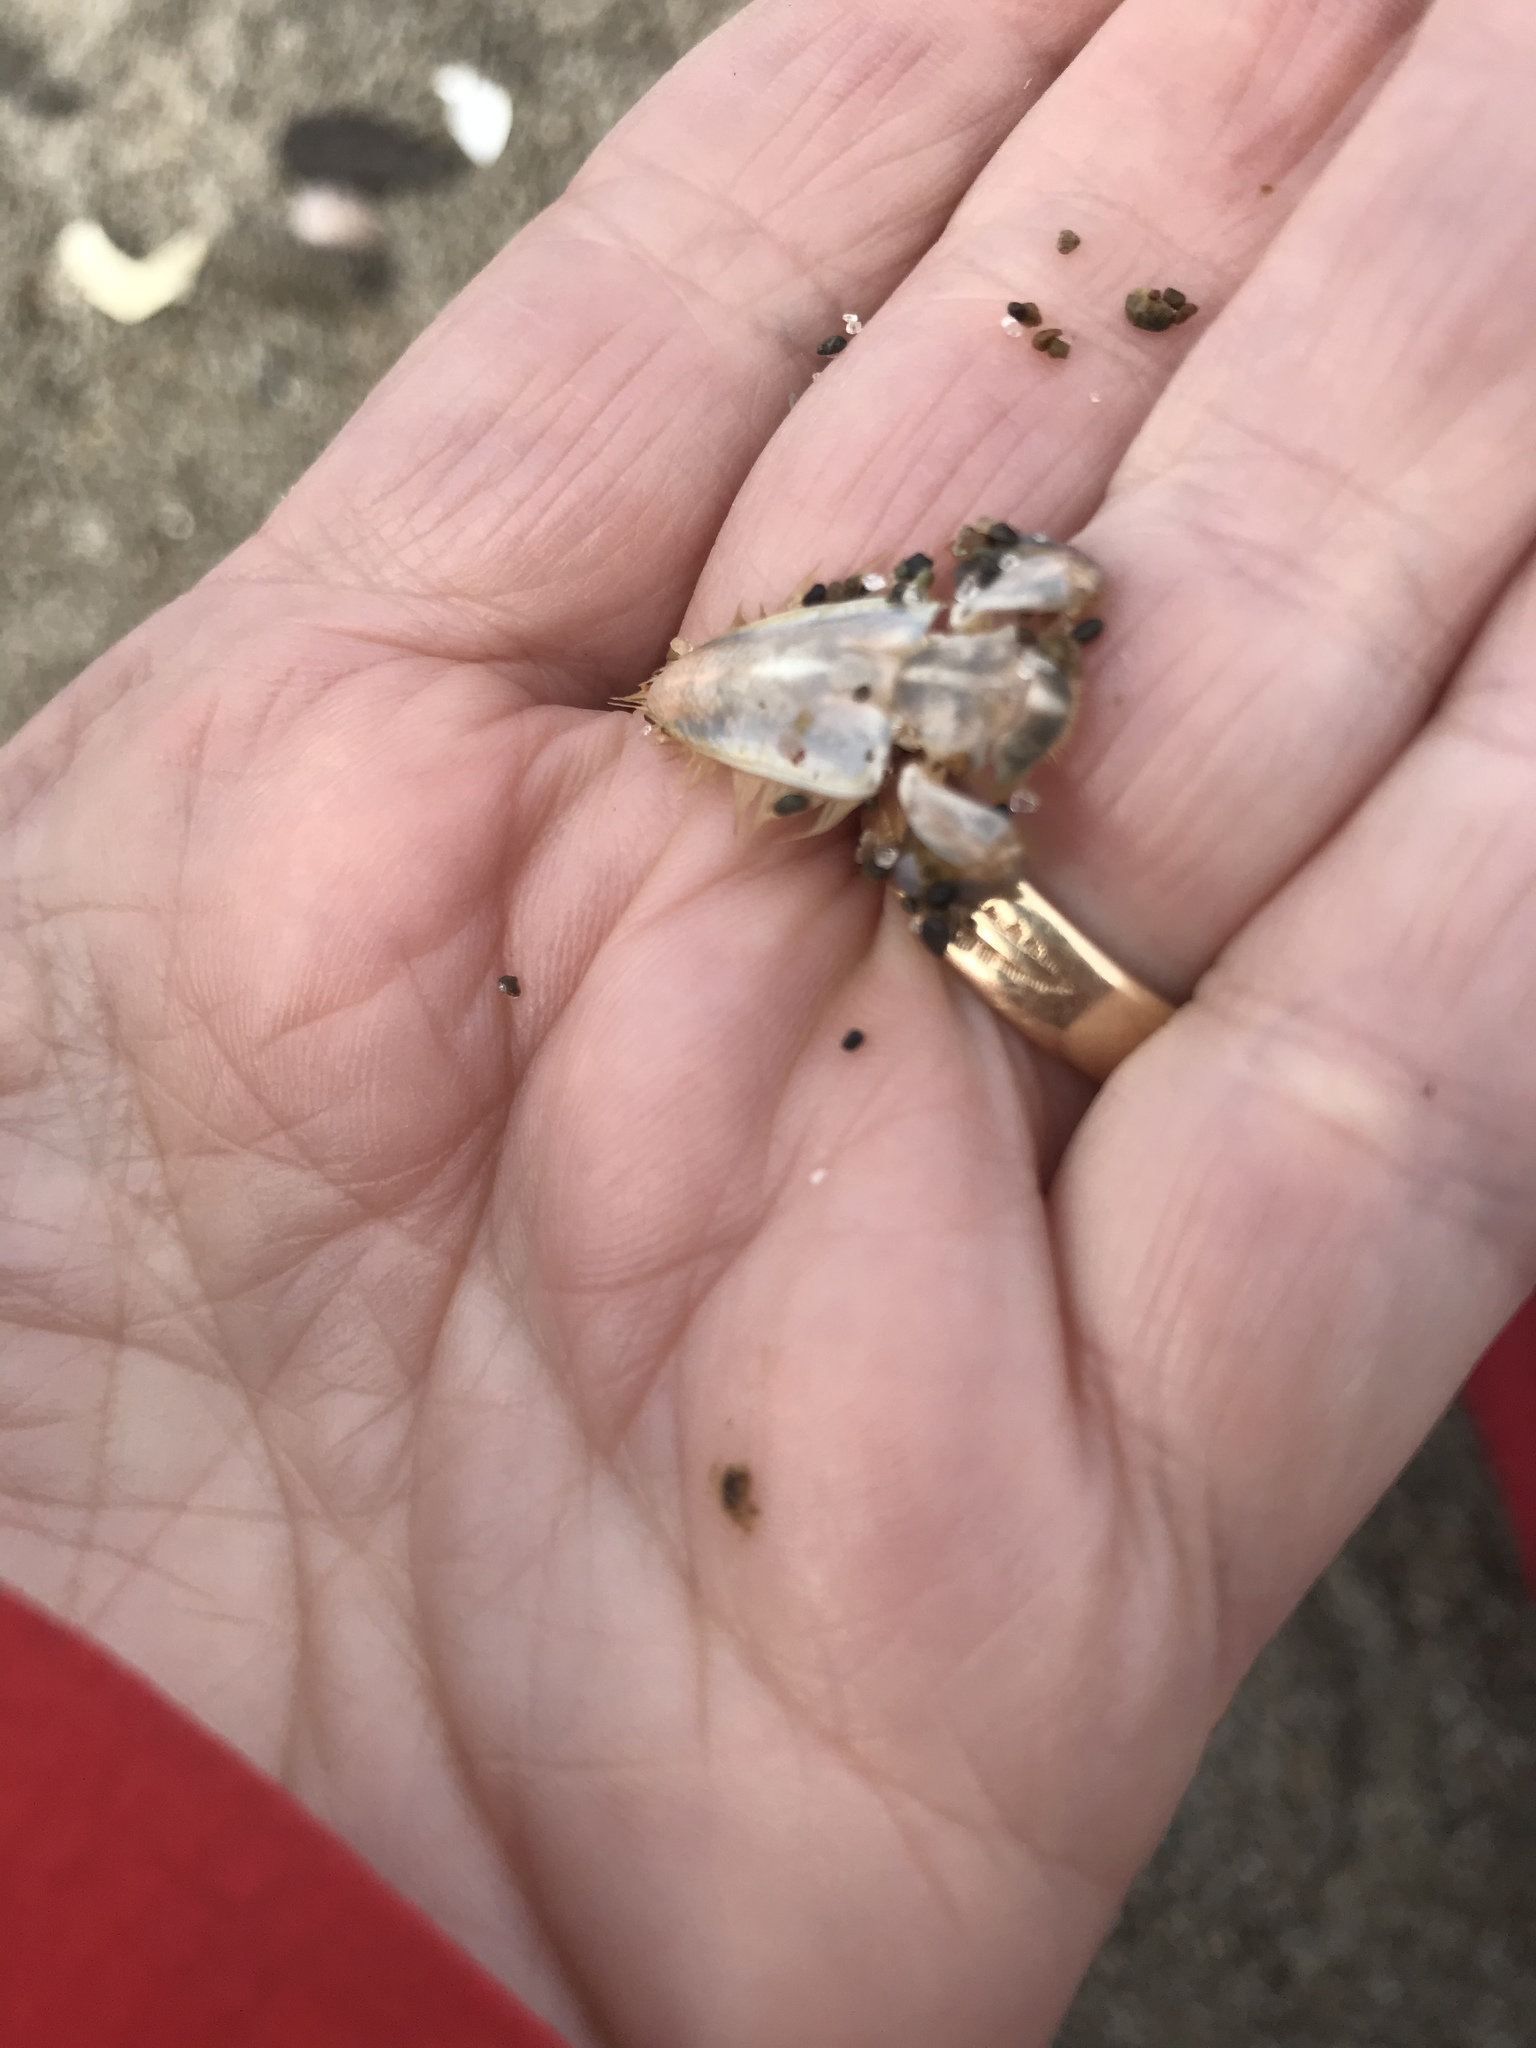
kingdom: Animalia
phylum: Arthropoda
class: Malacostraca
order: Decapoda
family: Hippidae
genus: Emerita
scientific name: Emerita analoga
